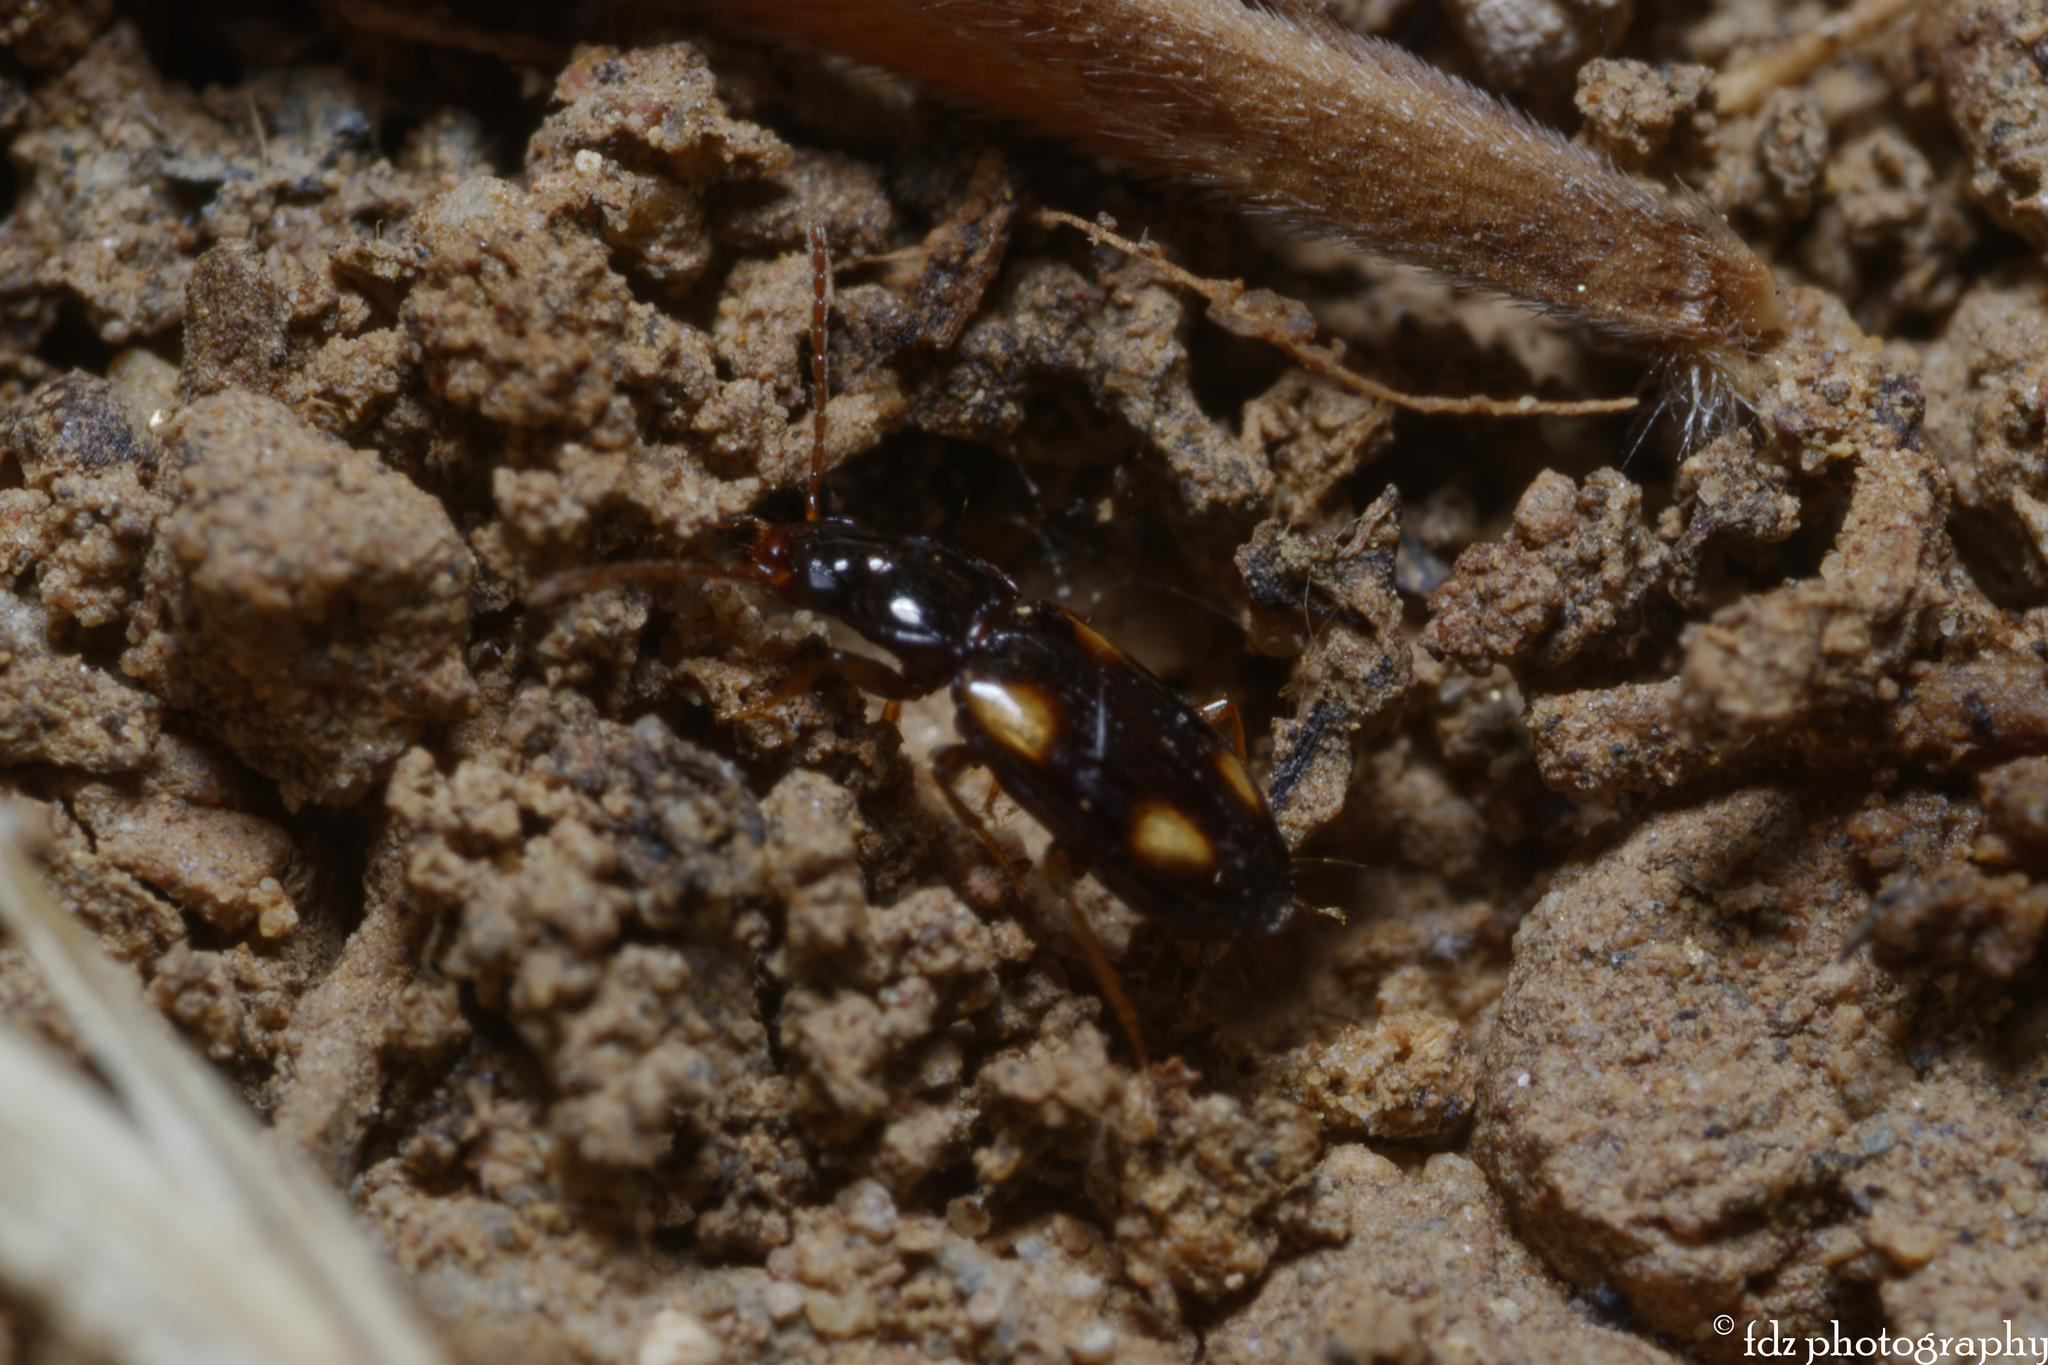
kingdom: Animalia
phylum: Arthropoda
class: Insecta
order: Coleoptera
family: Carabidae
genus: Elaphropus
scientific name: Elaphropus ferroa
